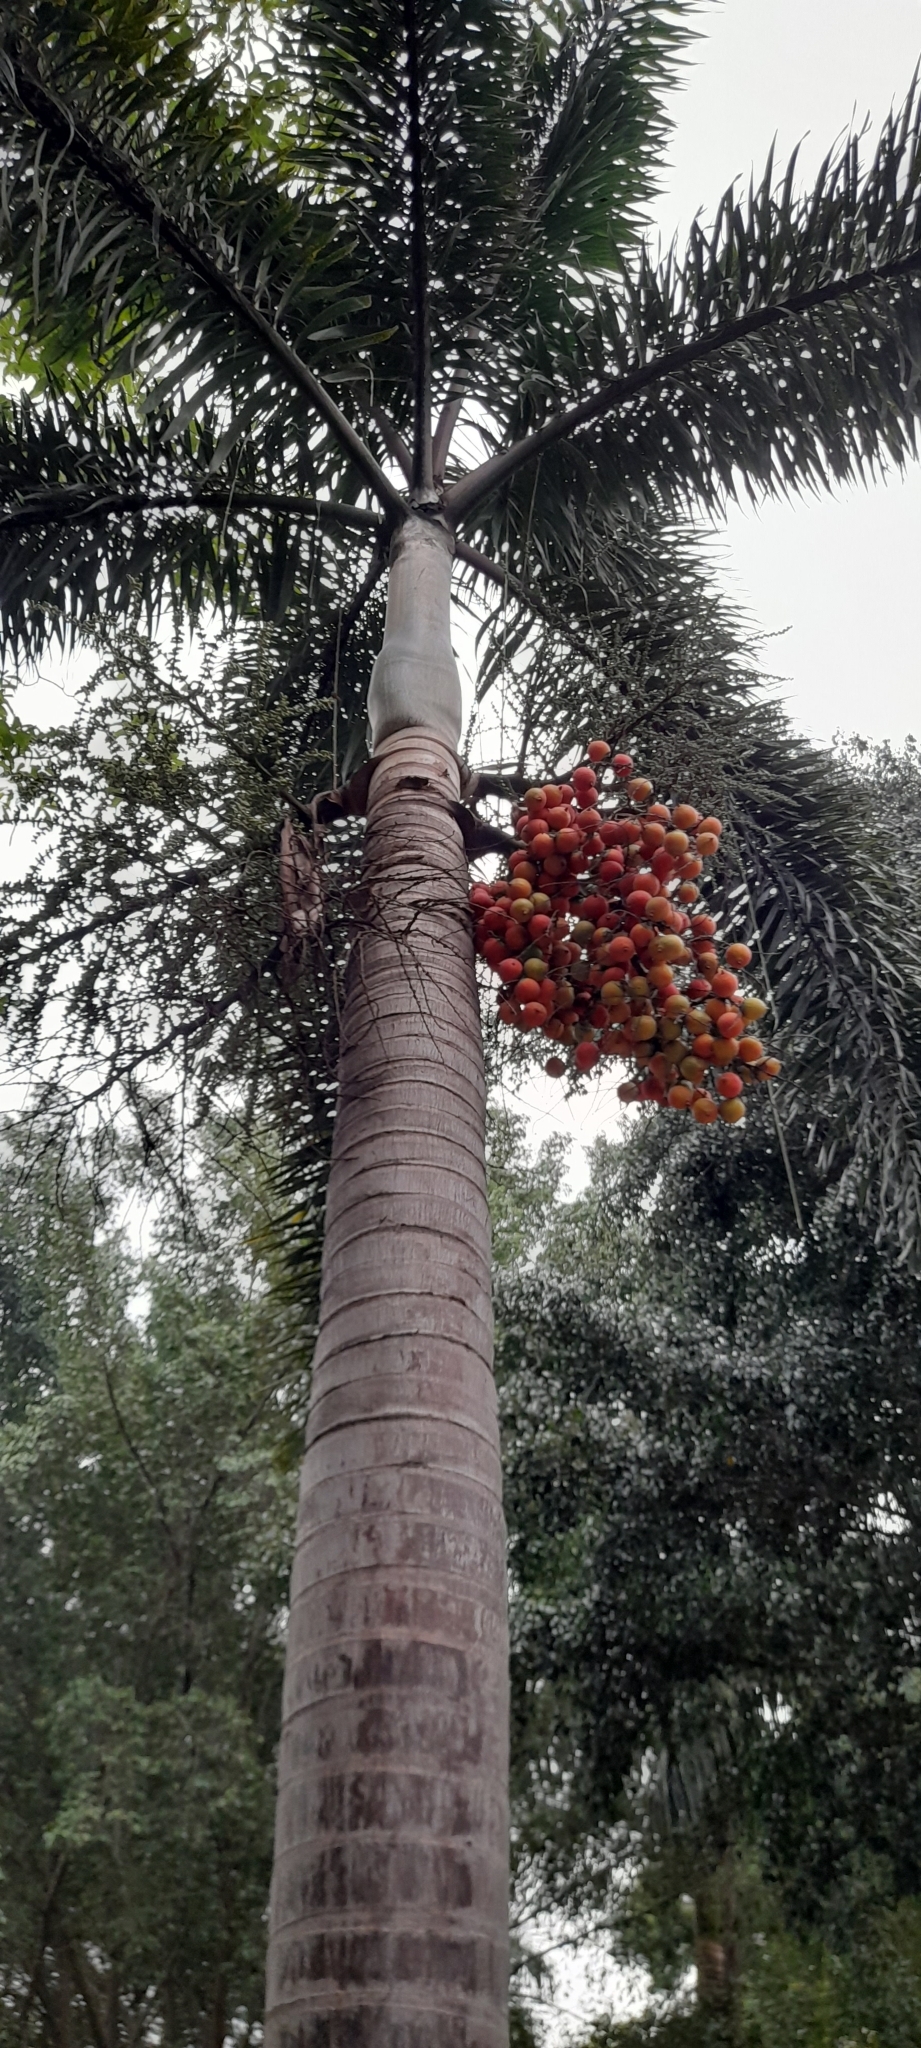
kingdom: Plantae
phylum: Tracheophyta
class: Liliopsida
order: Arecales
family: Arecaceae
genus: Wodyetia
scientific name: Wodyetia bifurcata
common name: Foxtail palm
